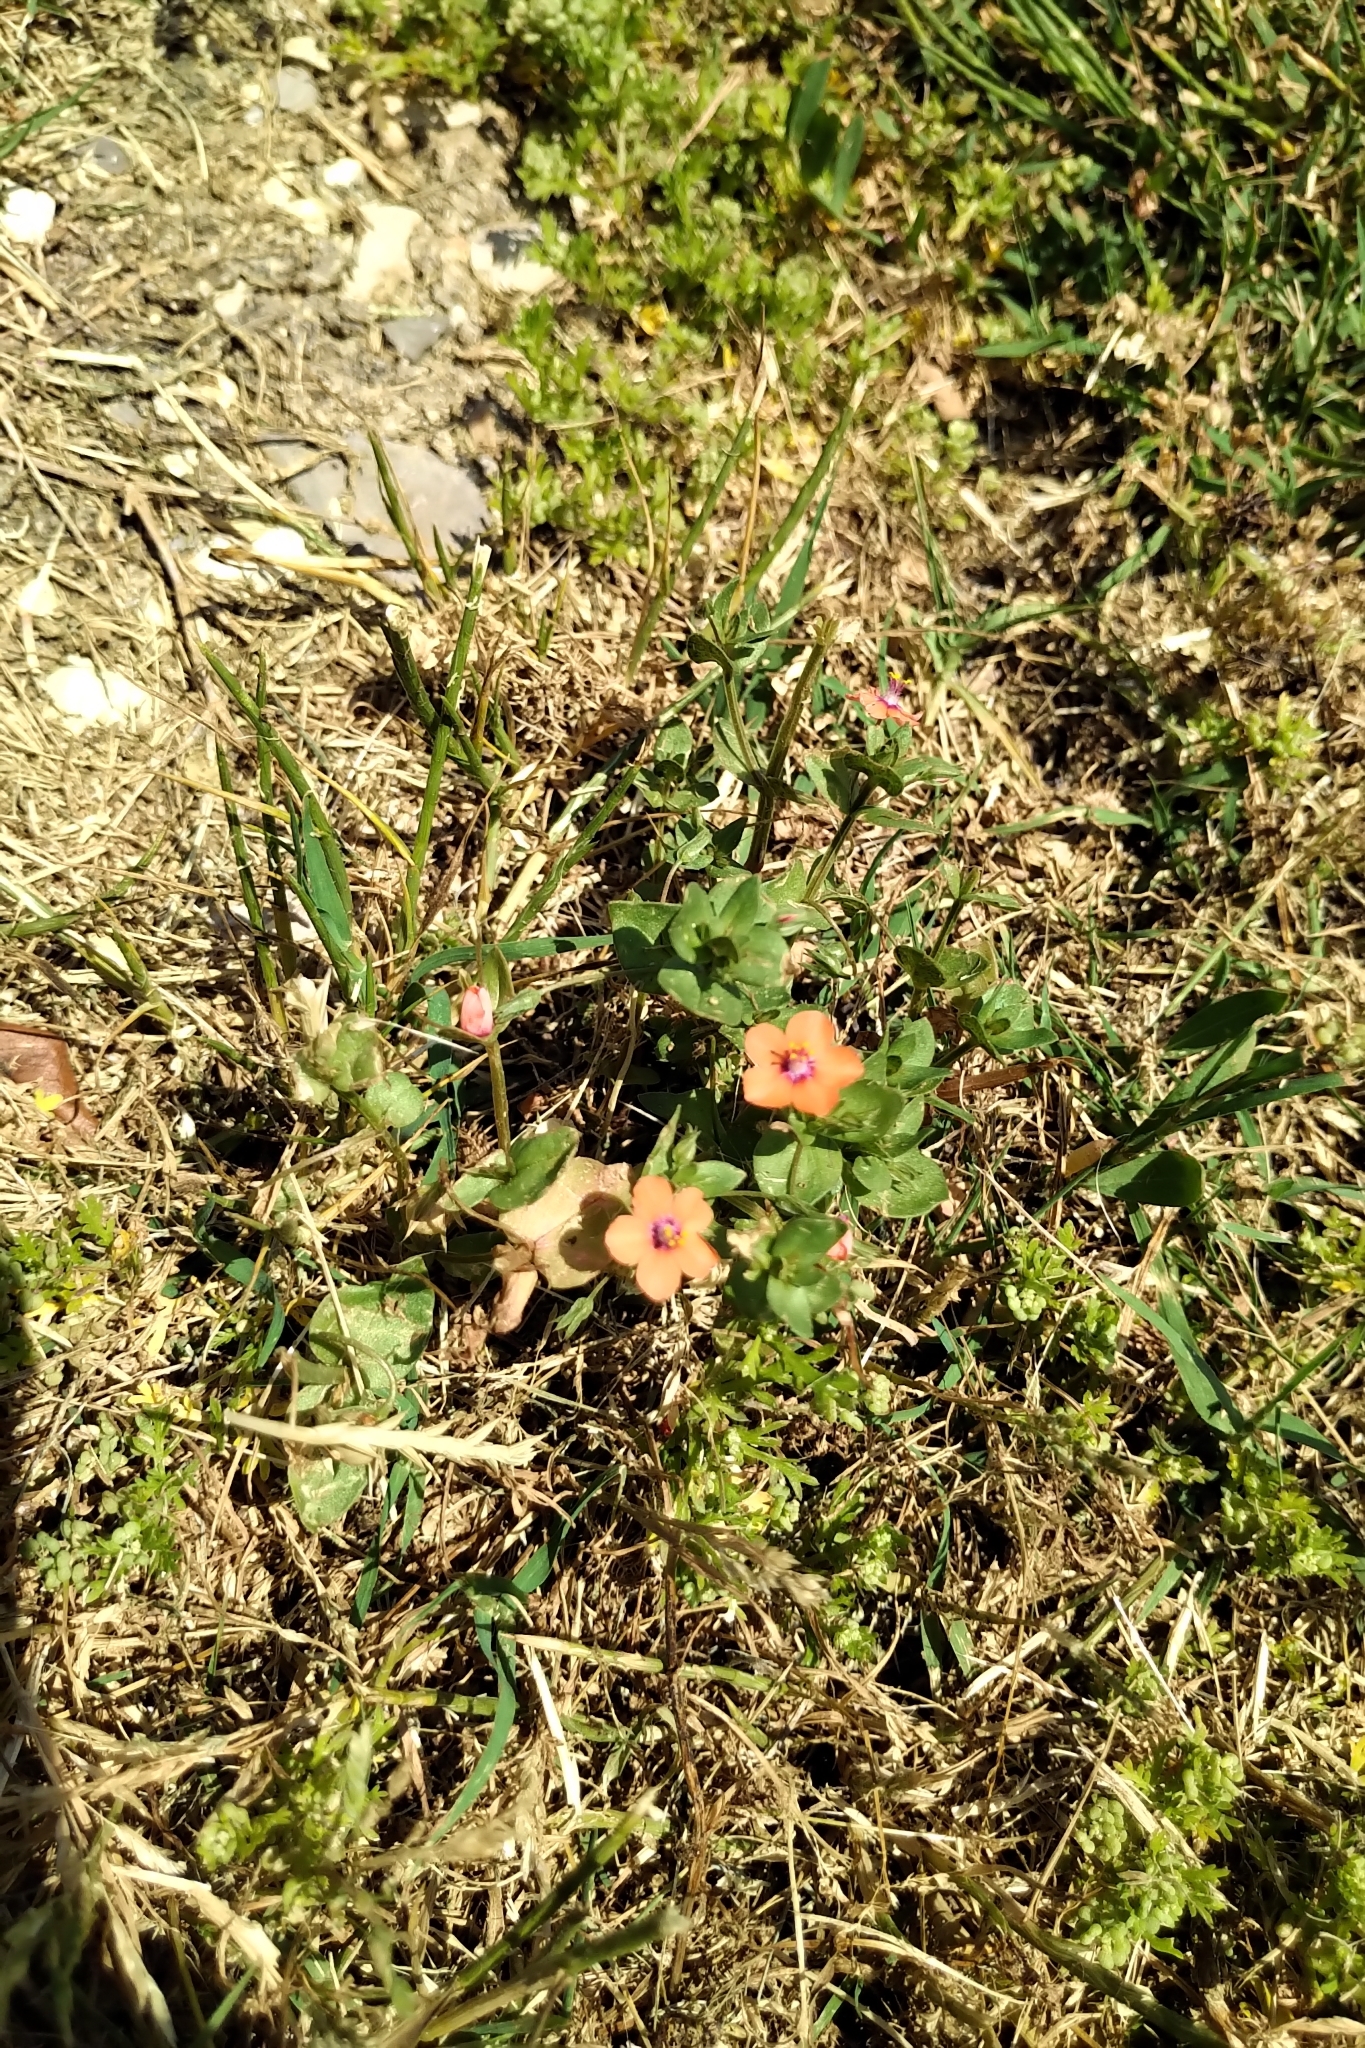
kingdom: Plantae
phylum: Tracheophyta
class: Magnoliopsida
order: Ericales
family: Primulaceae
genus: Lysimachia
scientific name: Lysimachia arvensis
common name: Scarlet pimpernel
